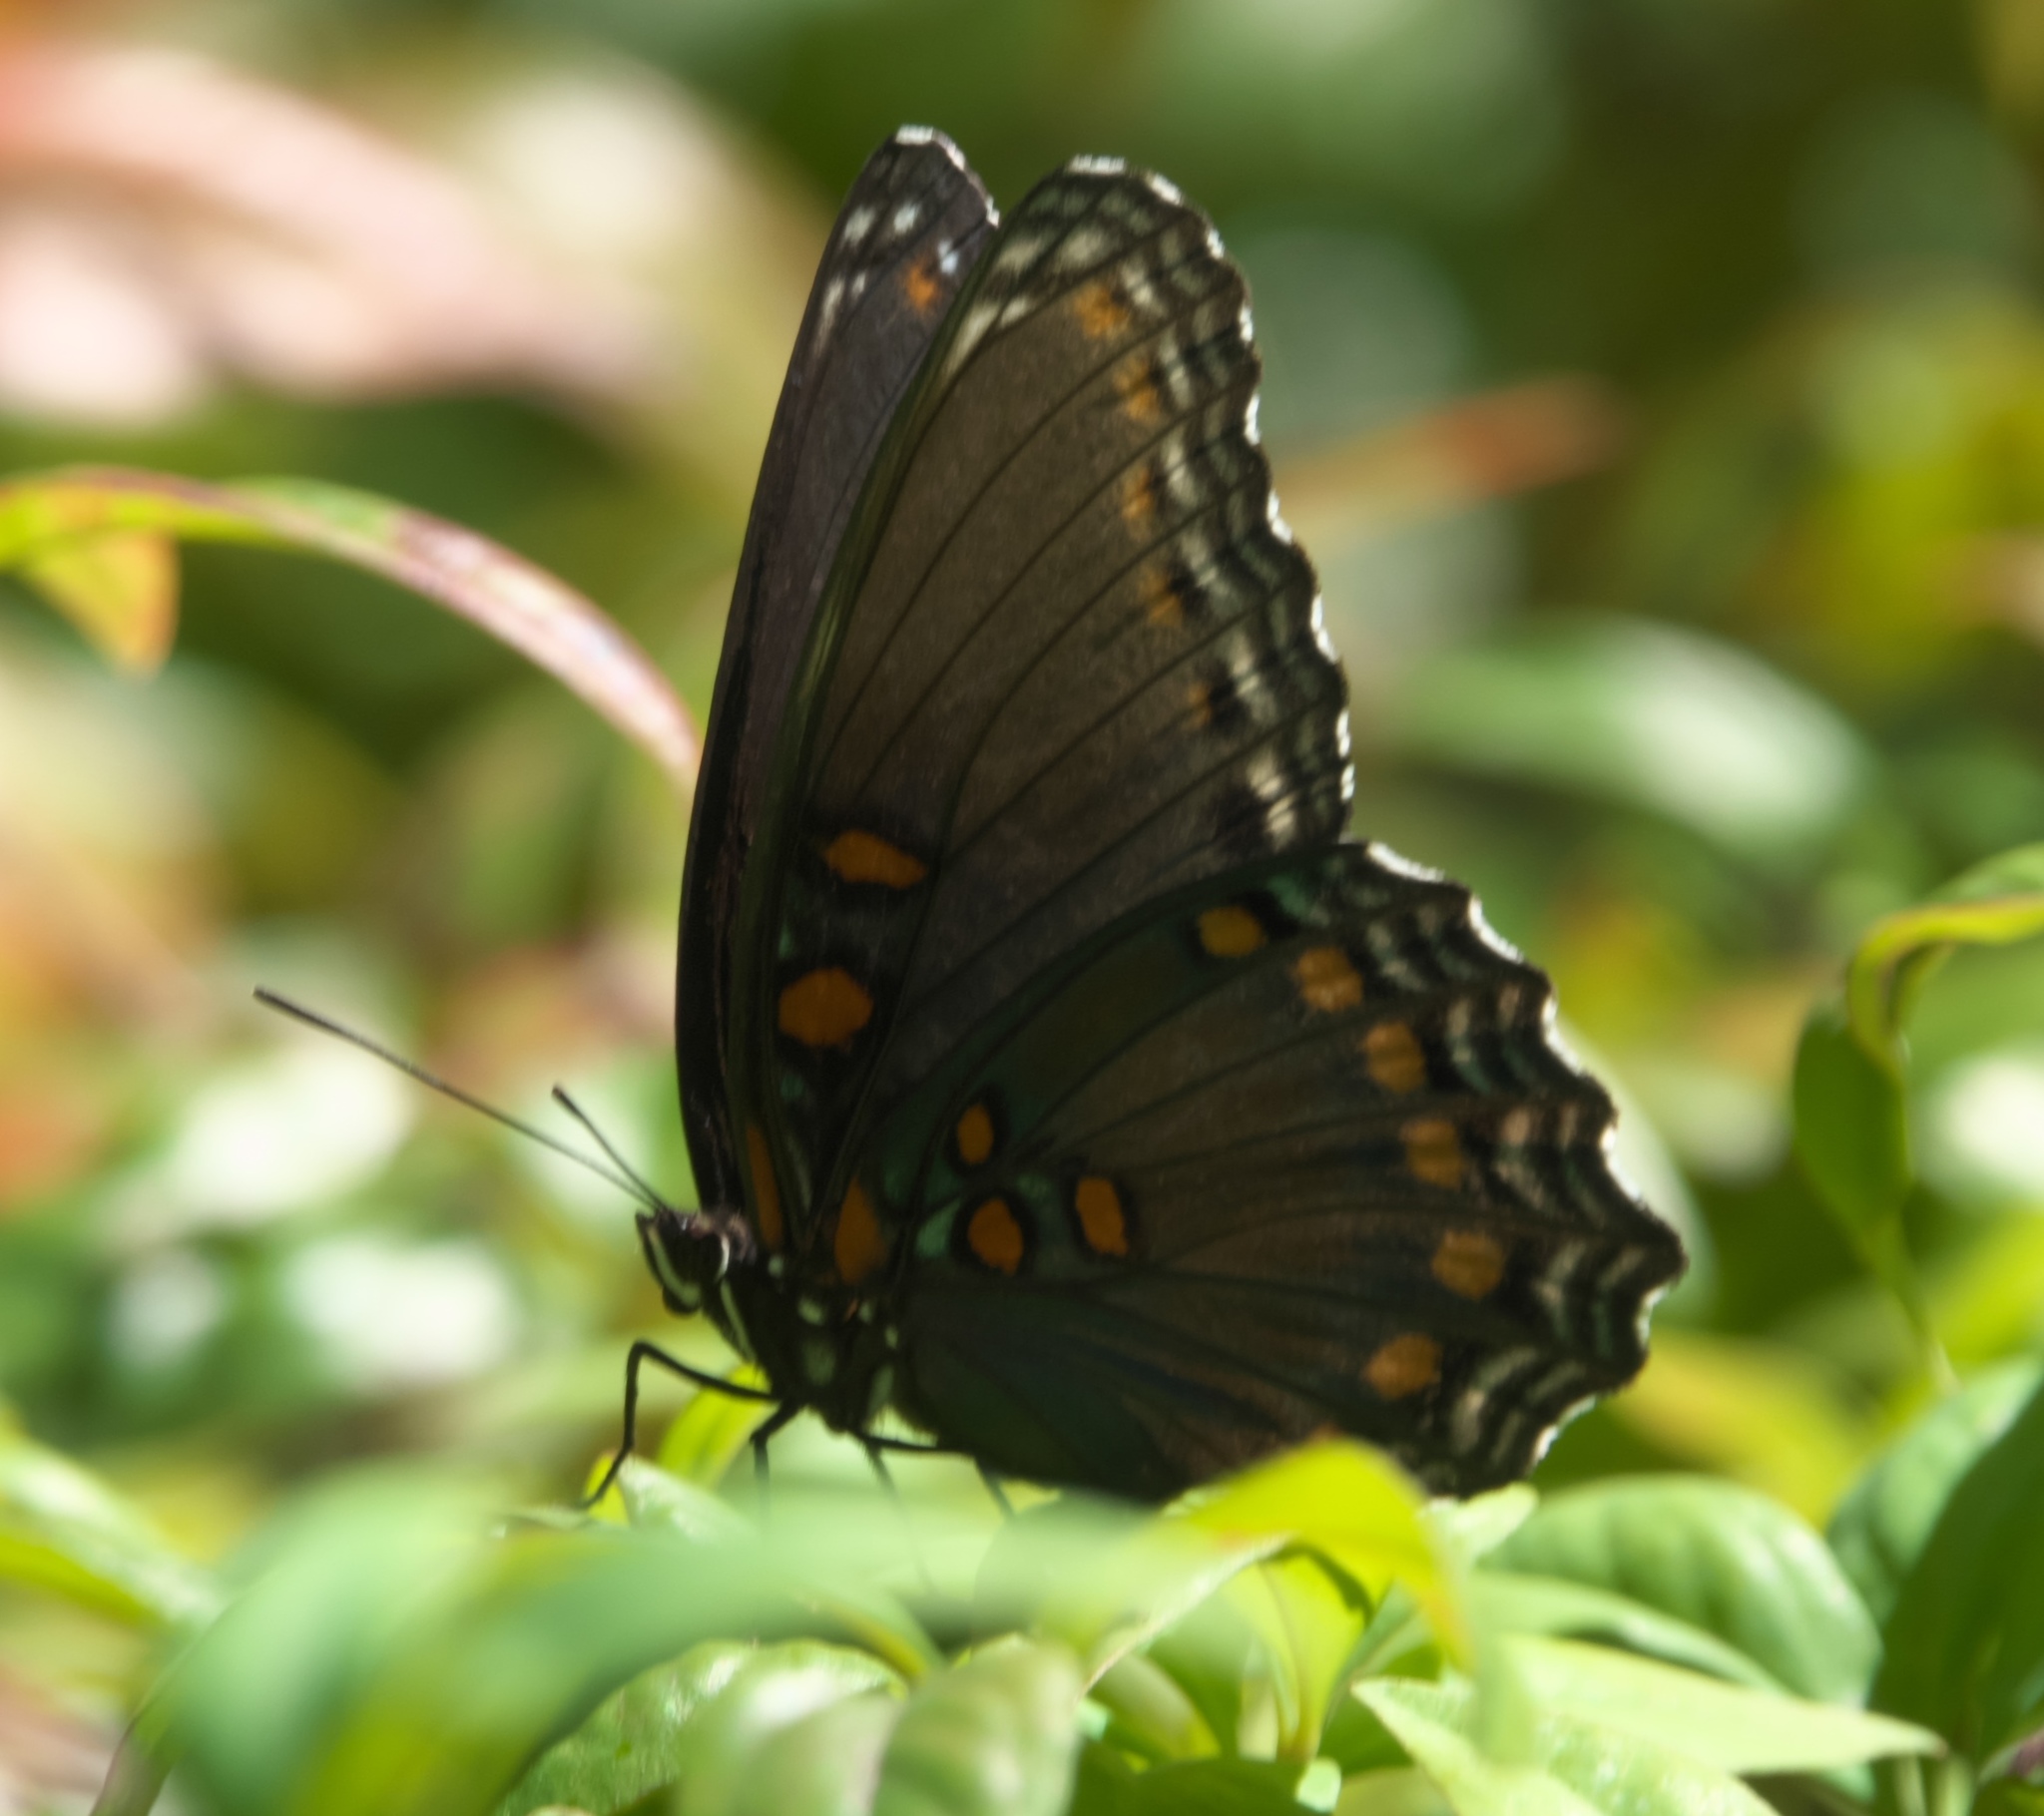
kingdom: Animalia
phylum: Arthropoda
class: Insecta
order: Lepidoptera
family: Nymphalidae
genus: Limenitis
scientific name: Limenitis astyanax
